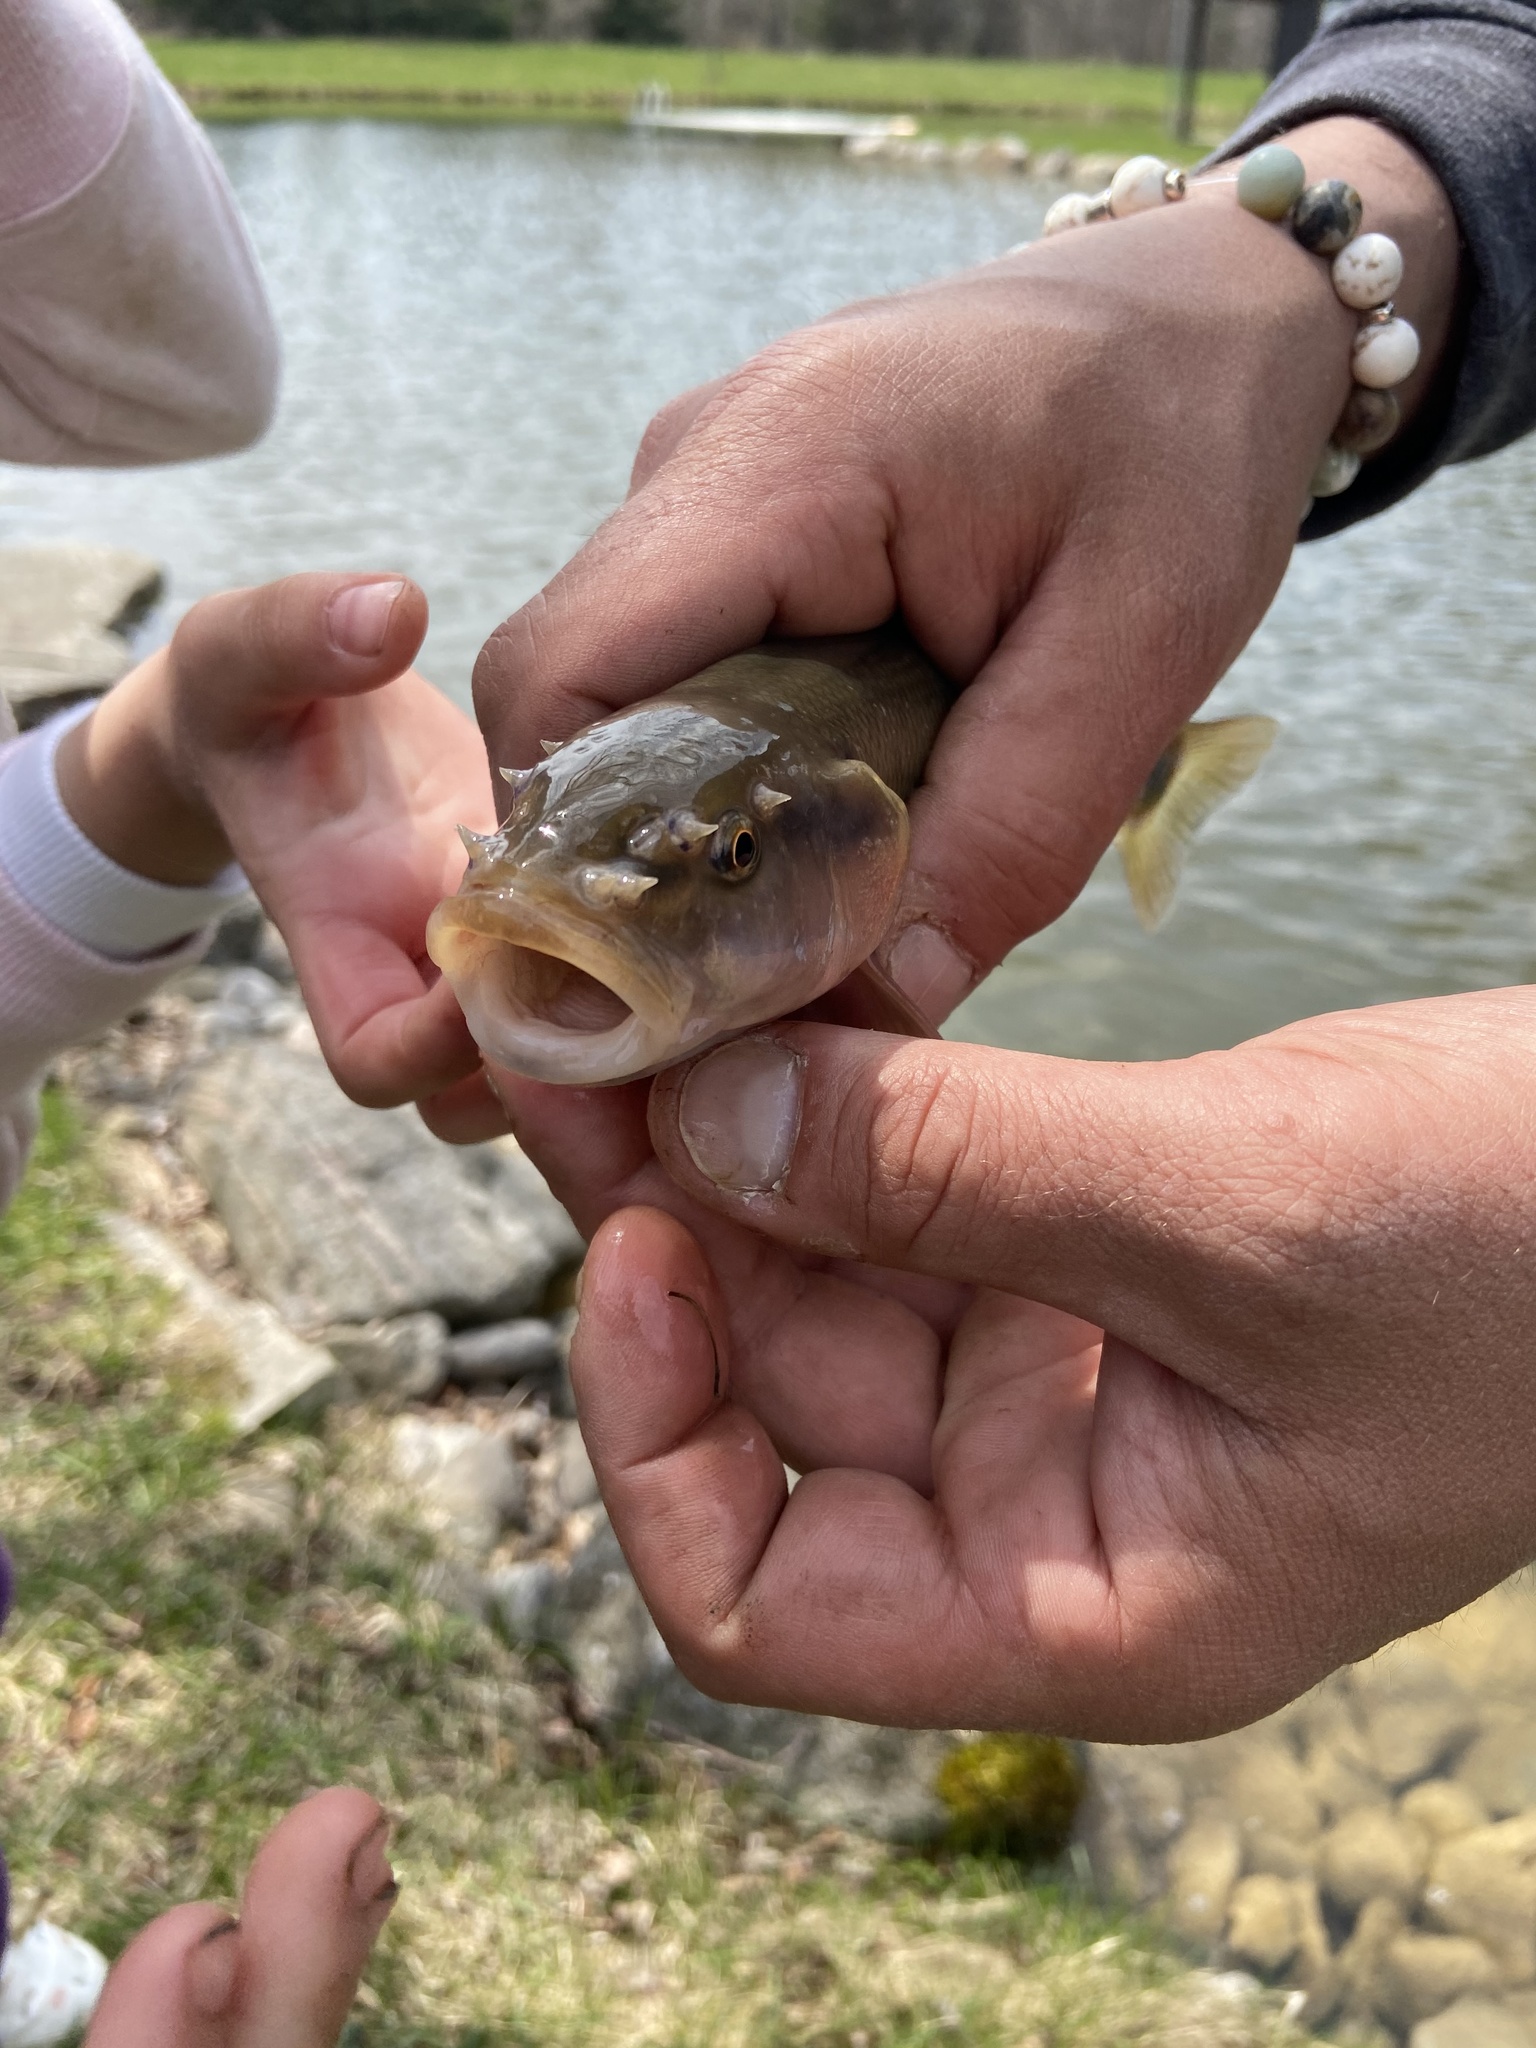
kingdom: Animalia
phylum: Chordata
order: Cypriniformes
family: Cyprinidae
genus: Semotilus
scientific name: Semotilus atromaculatus
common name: Creek chub
